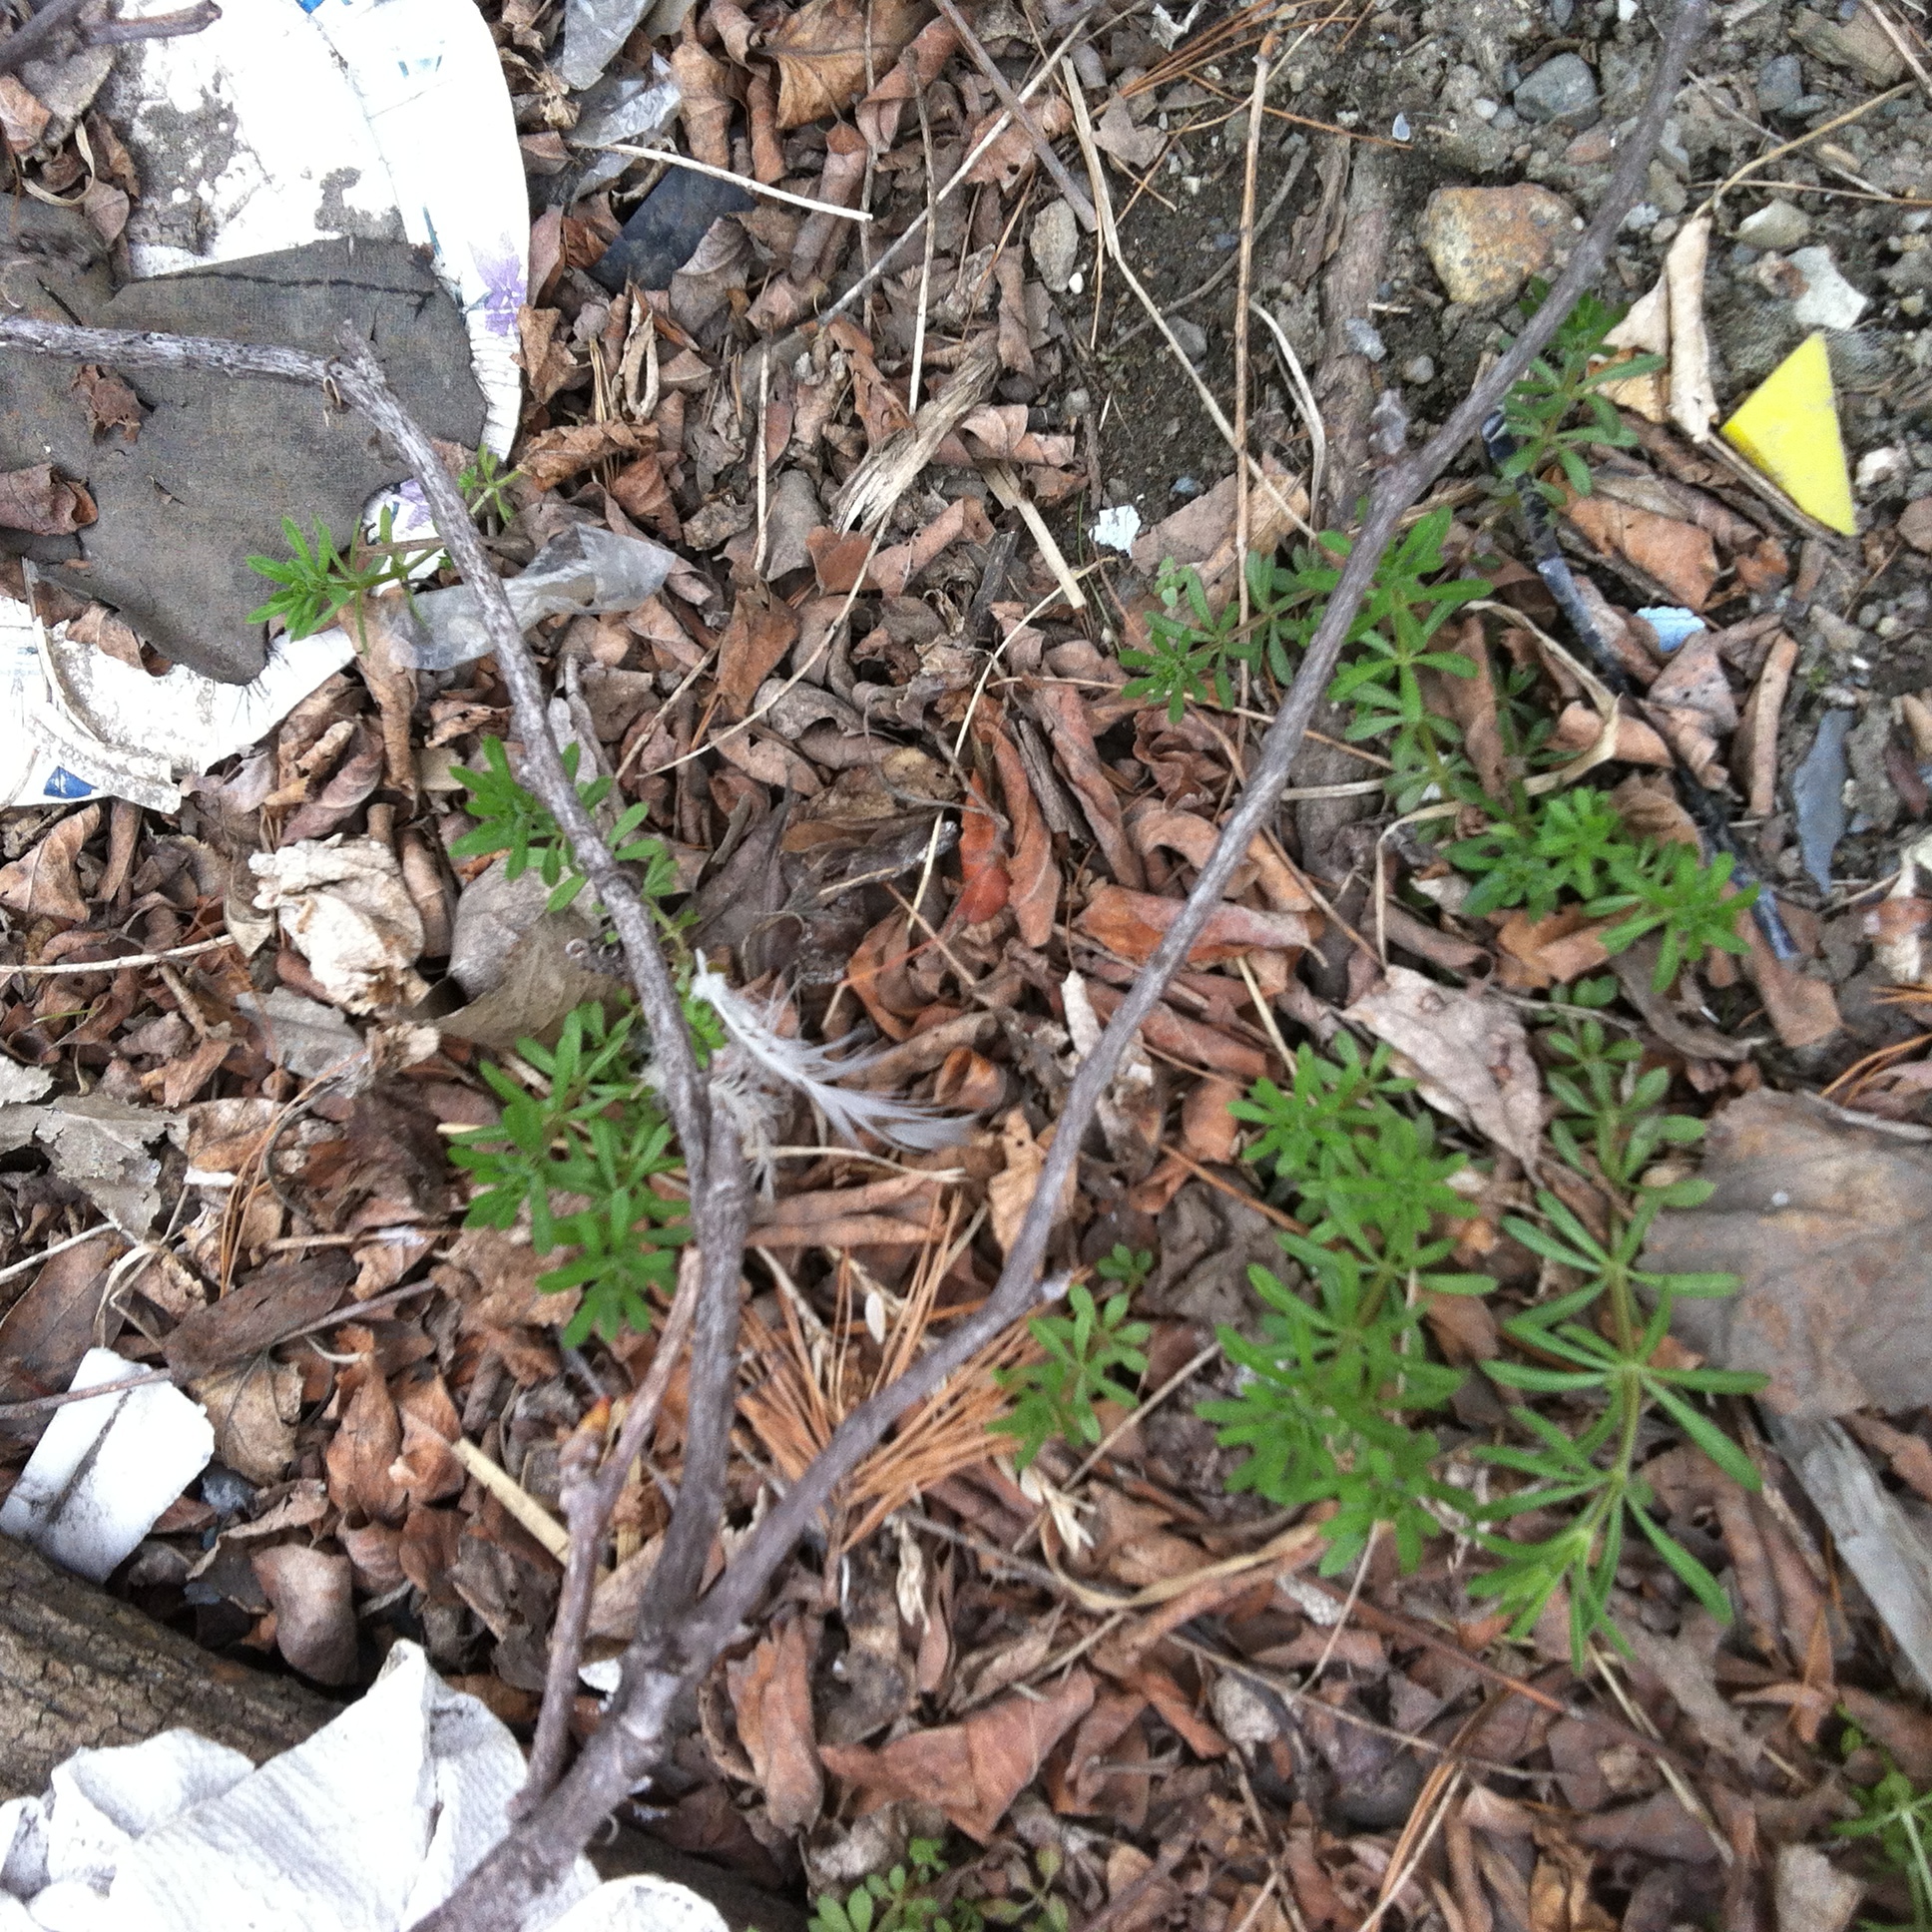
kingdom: Plantae
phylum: Tracheophyta
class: Magnoliopsida
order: Gentianales
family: Rubiaceae
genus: Galium
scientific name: Galium aparine
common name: Cleavers
